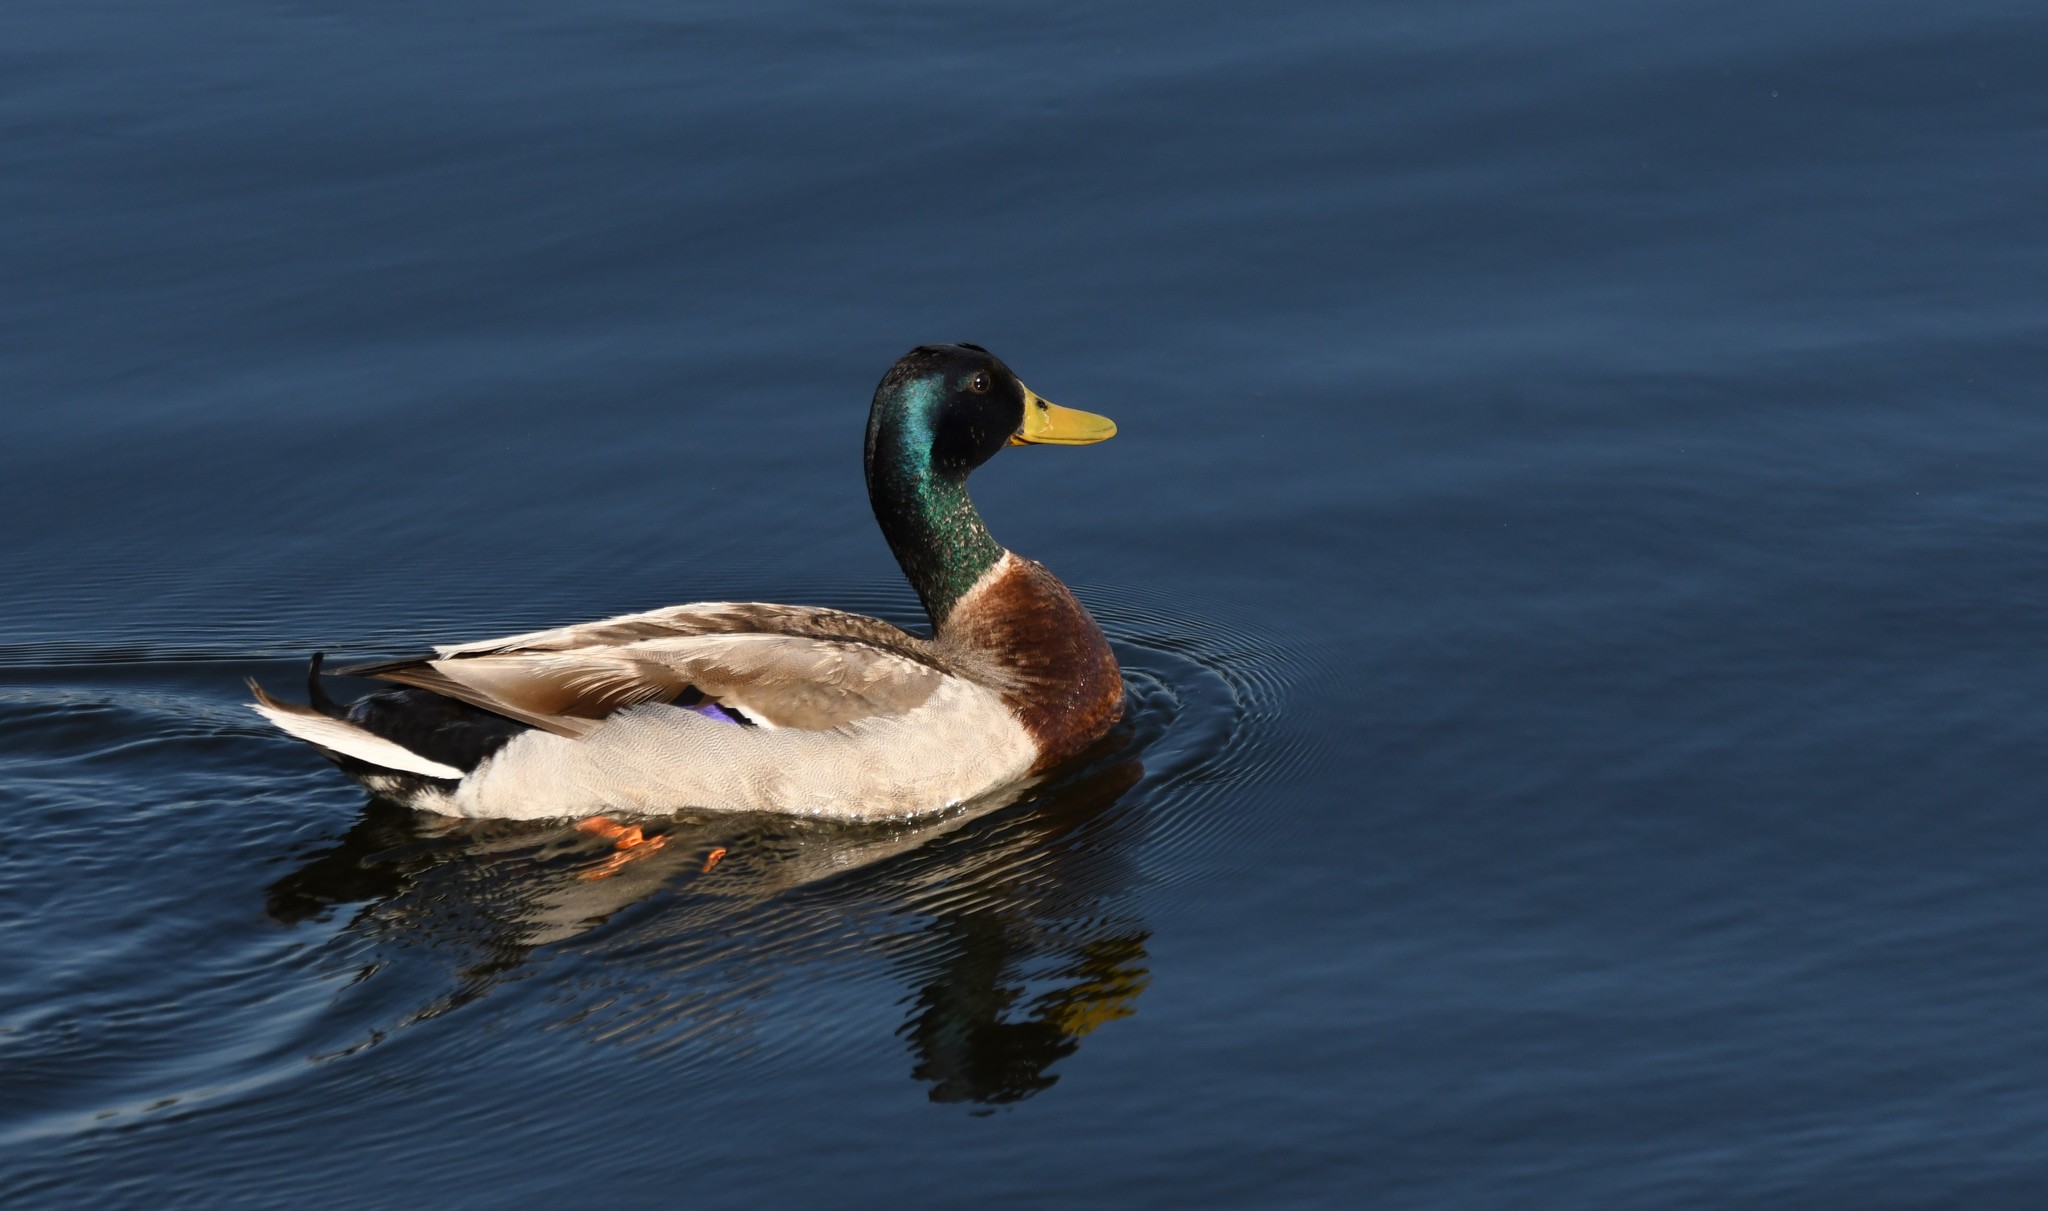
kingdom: Animalia
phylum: Chordata
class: Aves
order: Anseriformes
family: Anatidae
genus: Anas
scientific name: Anas platyrhynchos
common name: Mallard
